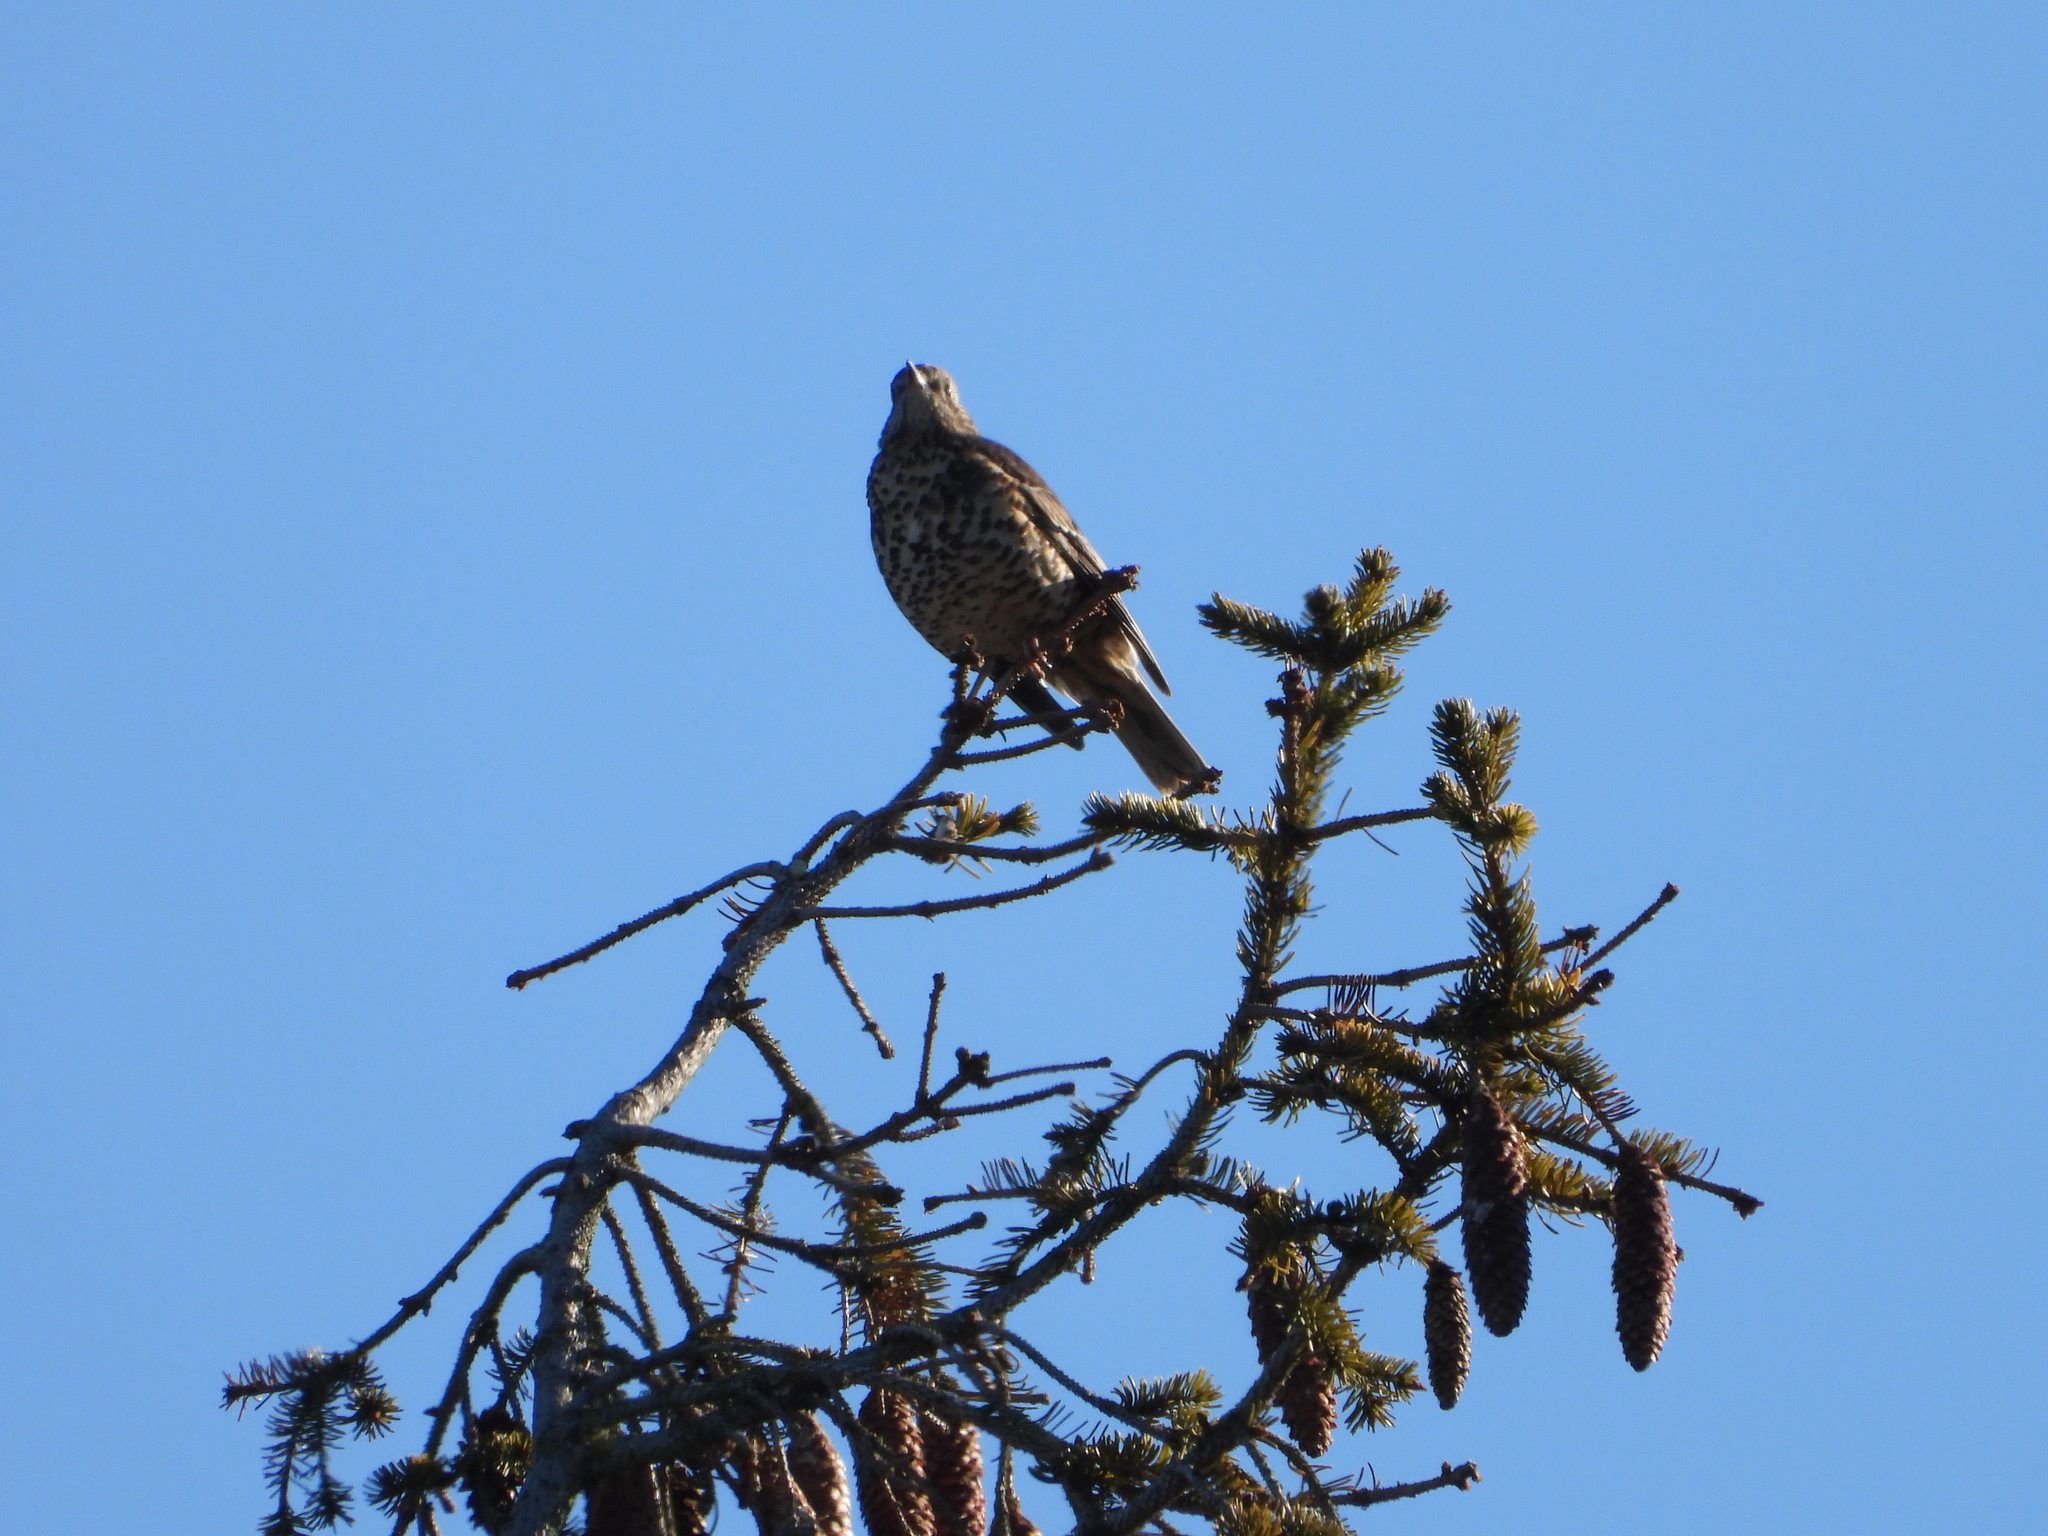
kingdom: Animalia
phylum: Chordata
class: Aves
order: Passeriformes
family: Turdidae
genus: Turdus
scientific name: Turdus viscivorus
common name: Mistle thrush
